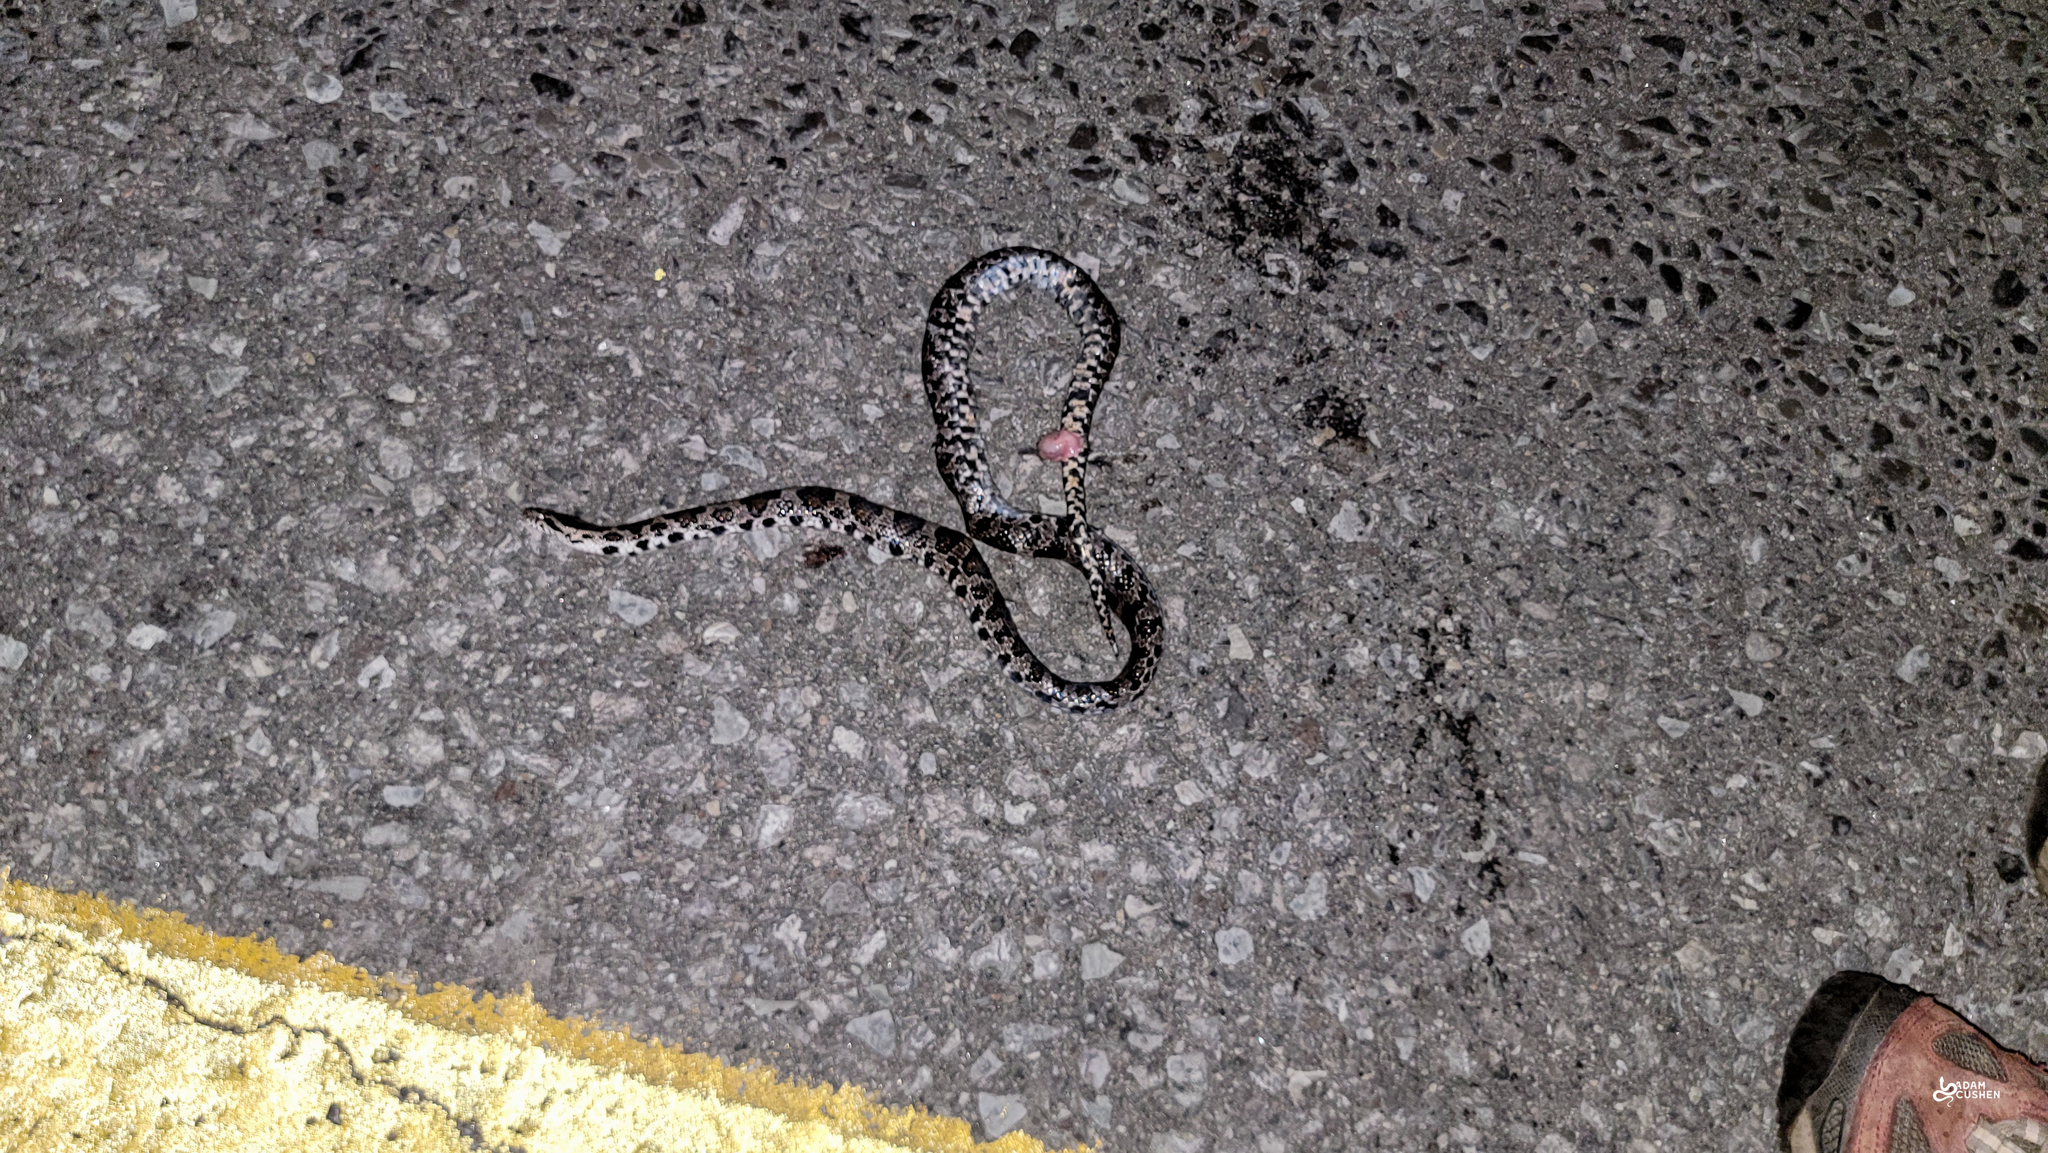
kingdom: Animalia
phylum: Chordata
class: Squamata
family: Colubridae
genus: Lampropeltis
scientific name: Lampropeltis triangulum
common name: Eastern milksnake
